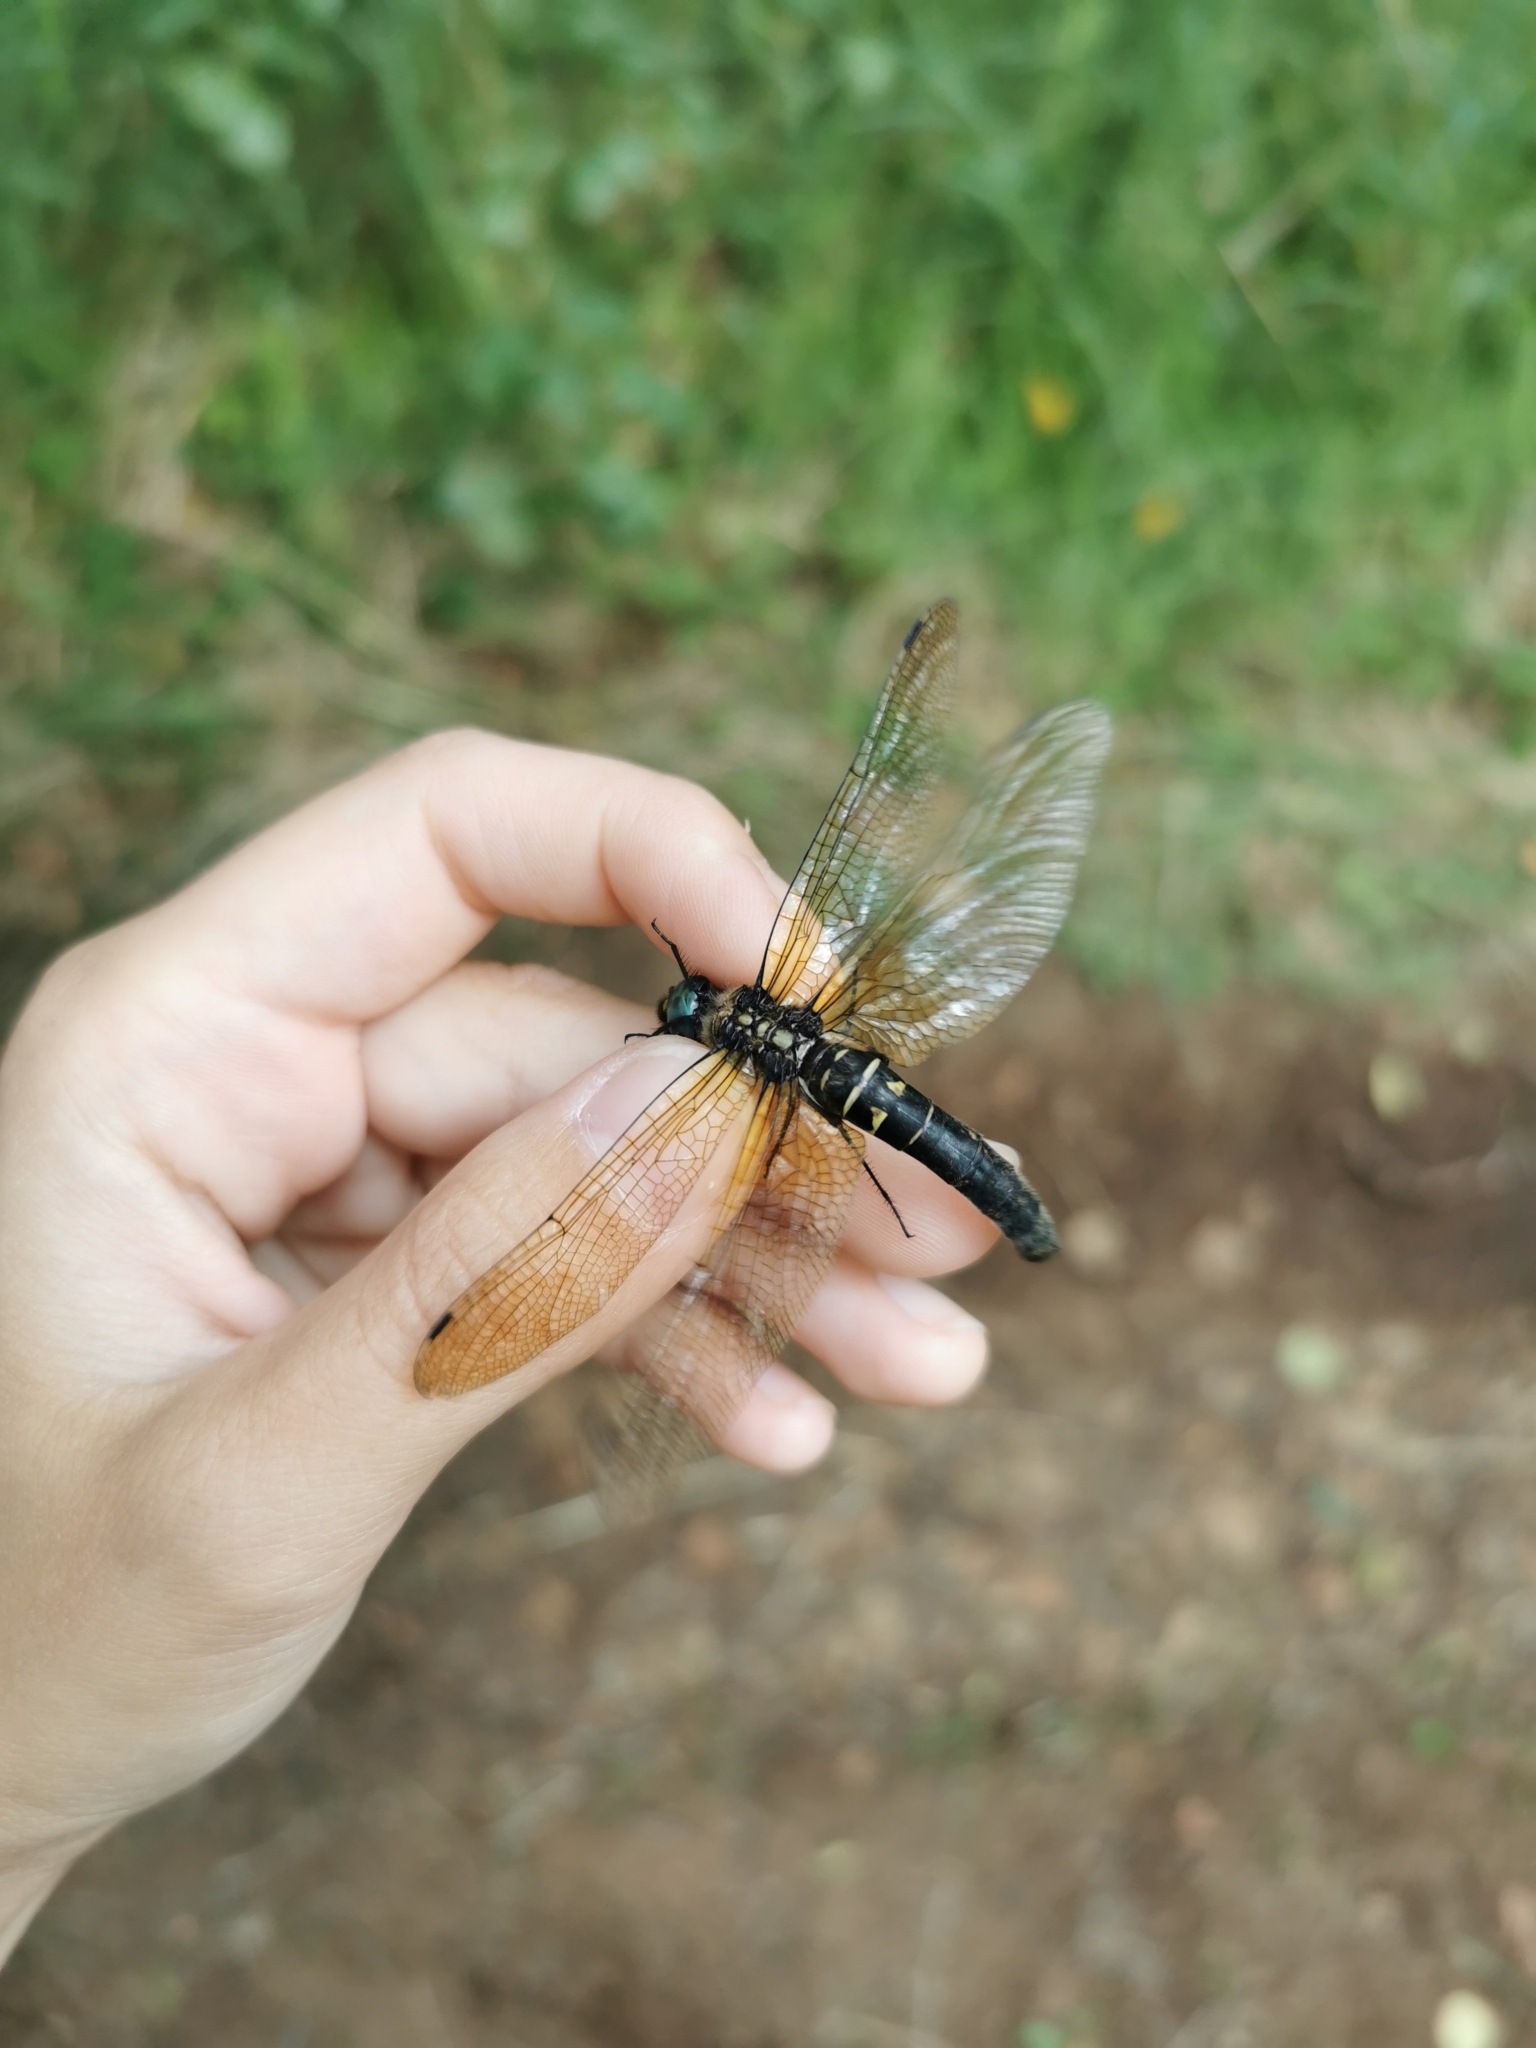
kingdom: Animalia
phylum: Arthropoda
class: Insecta
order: Odonata
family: Corduliidae
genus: Somatochlora
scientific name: Somatochlora graeseri
